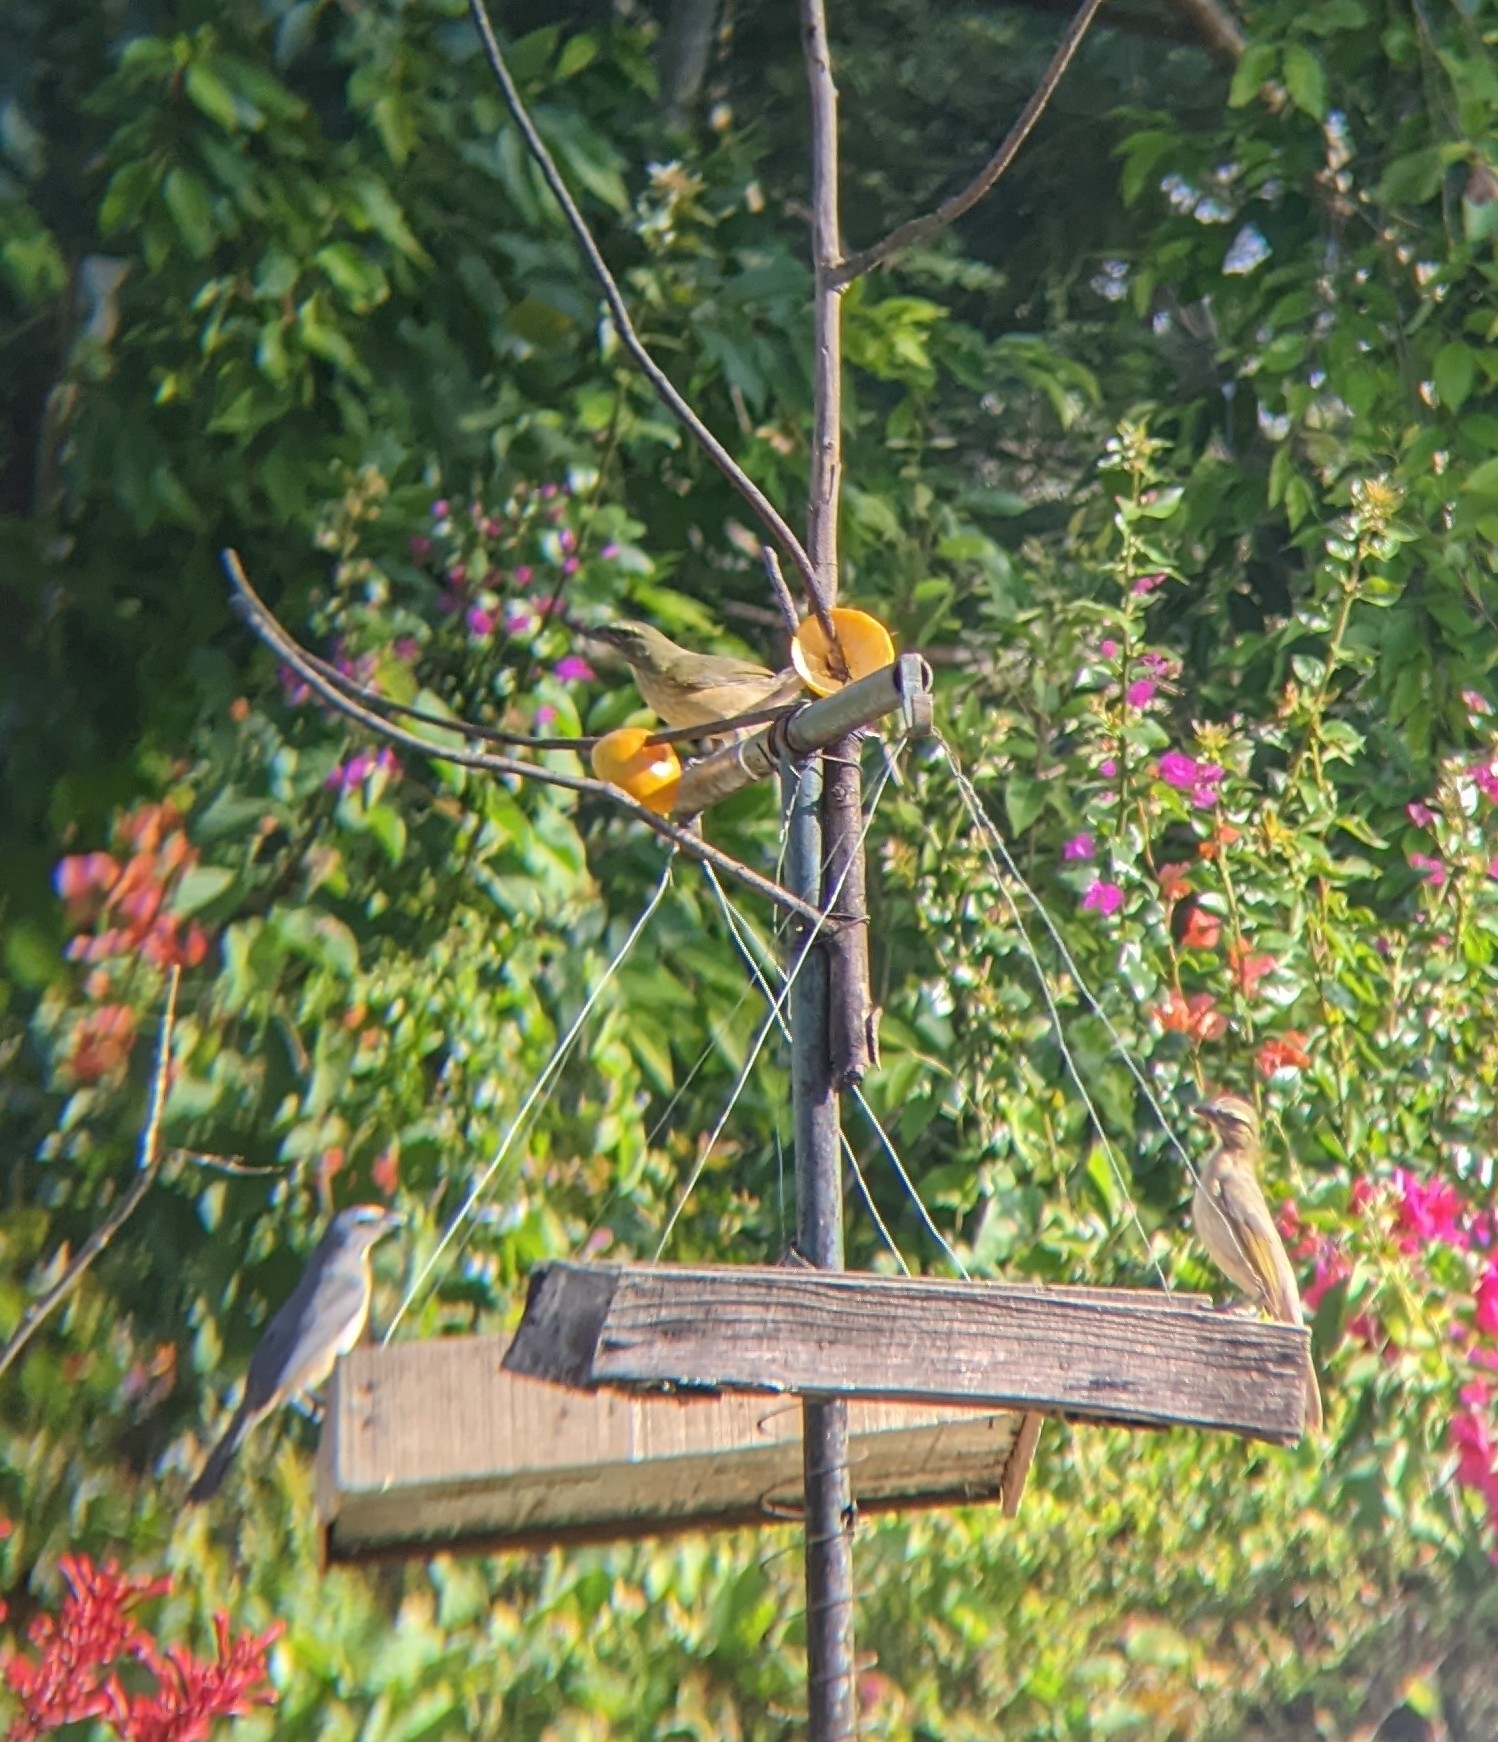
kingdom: Animalia
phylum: Chordata
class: Aves
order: Passeriformes
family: Thraupidae
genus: Saltator
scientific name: Saltator grandis
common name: Cinnamon-bellied saltator
